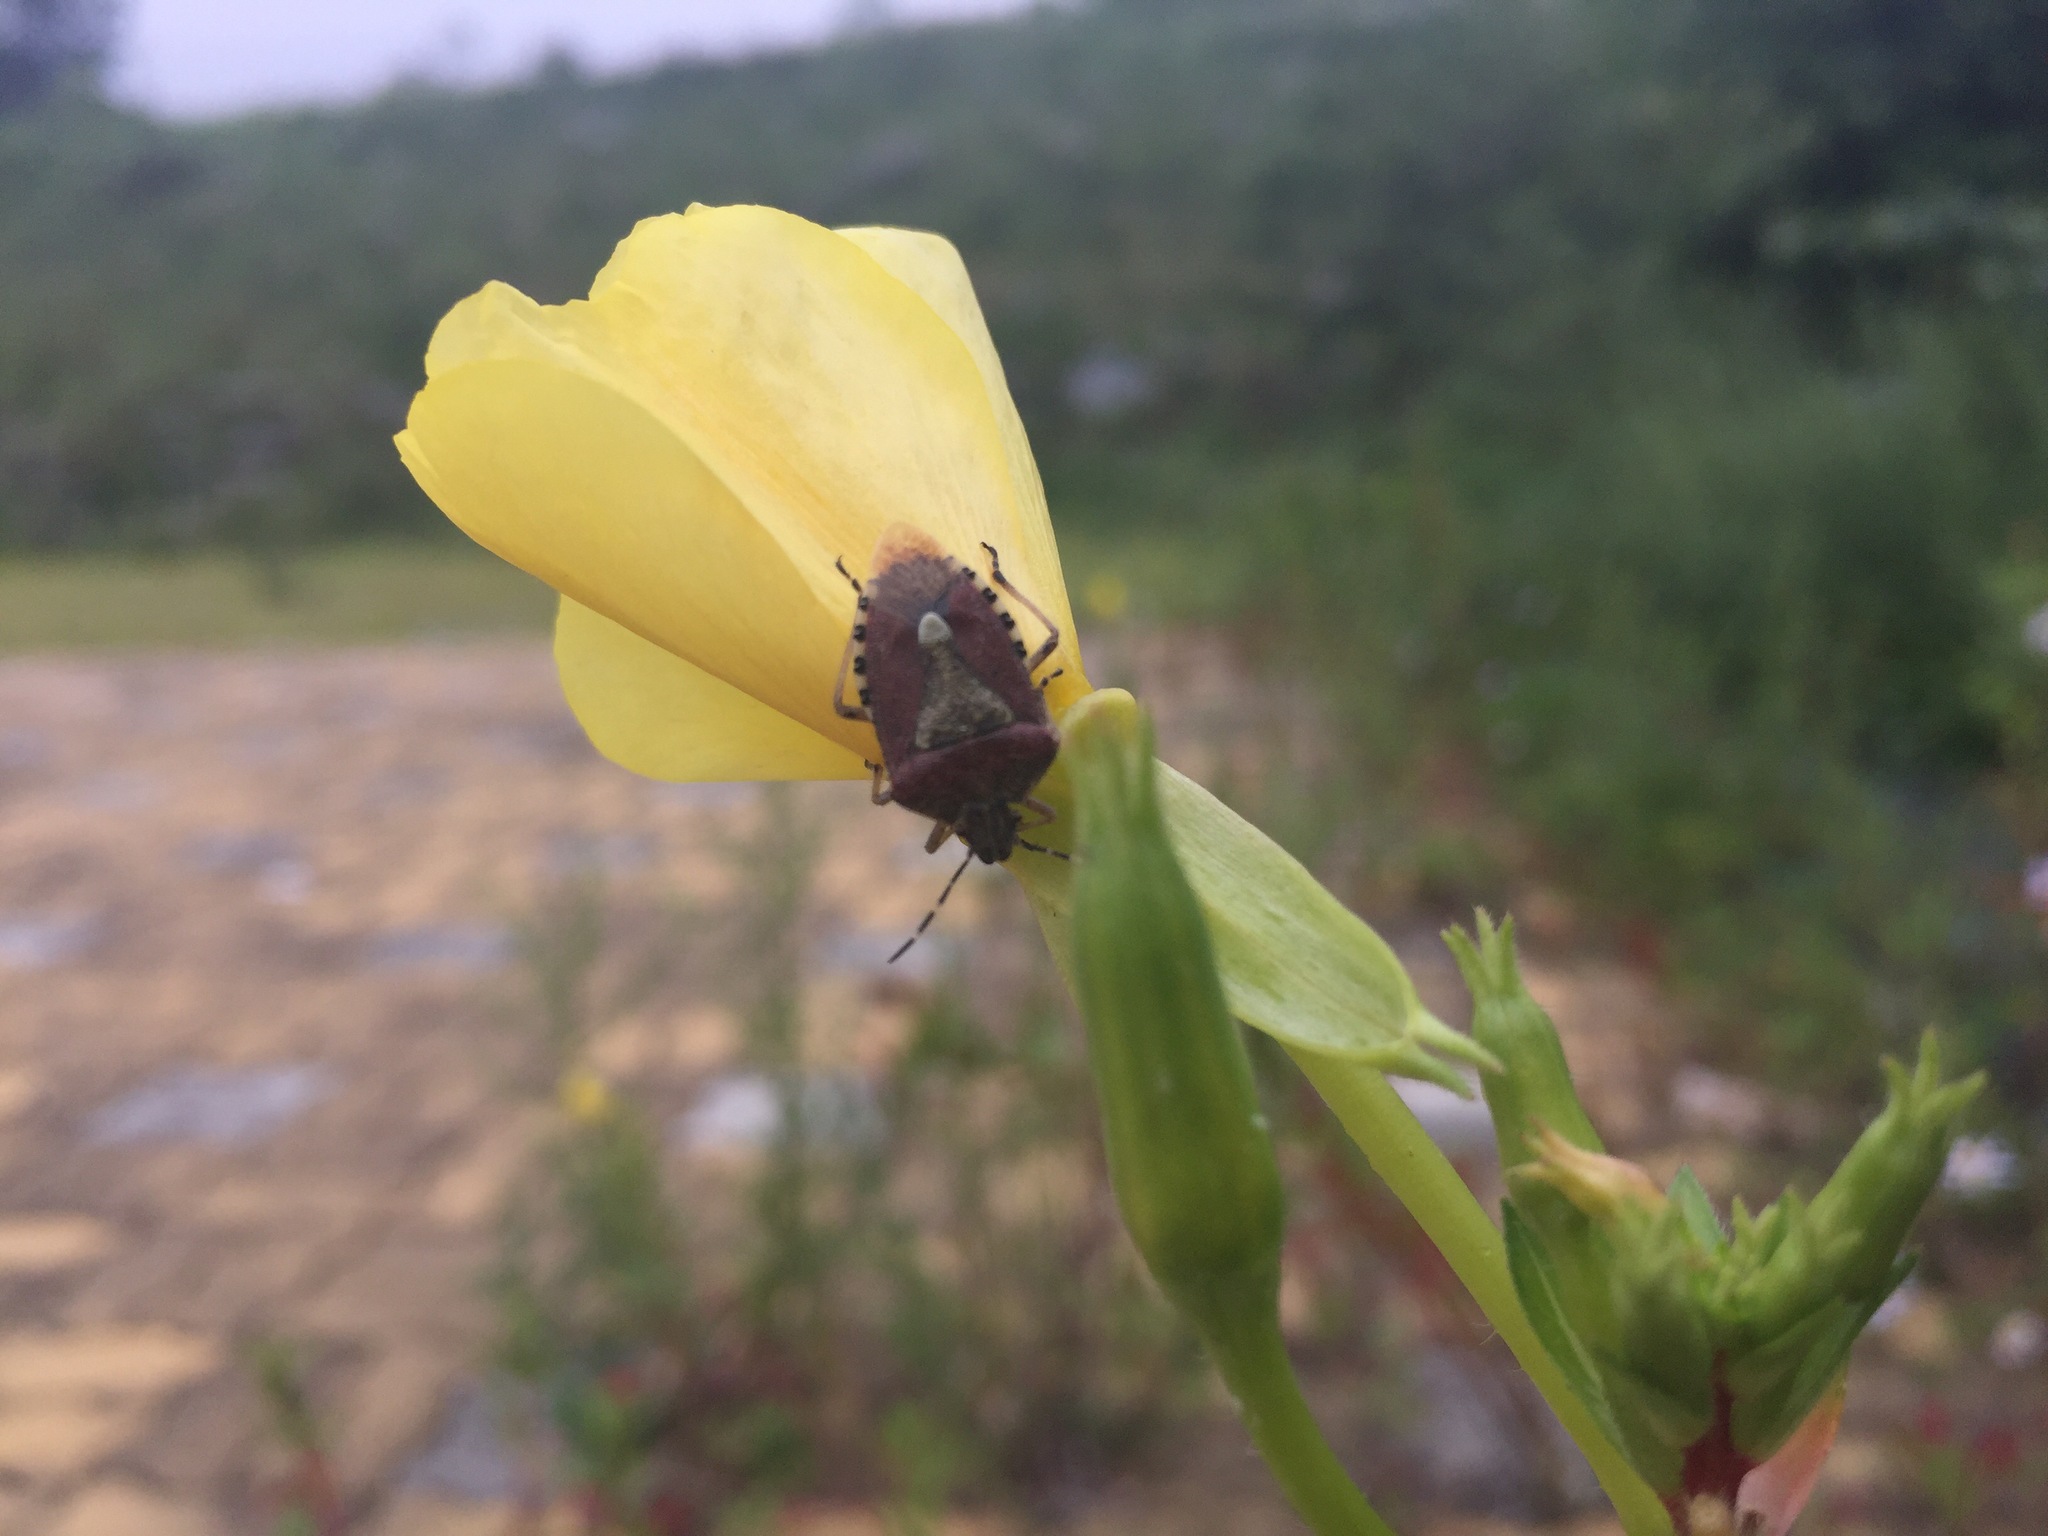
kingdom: Animalia
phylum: Arthropoda
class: Insecta
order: Hemiptera
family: Pentatomidae
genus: Dolycoris
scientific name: Dolycoris baccarum
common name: Sloe bug
